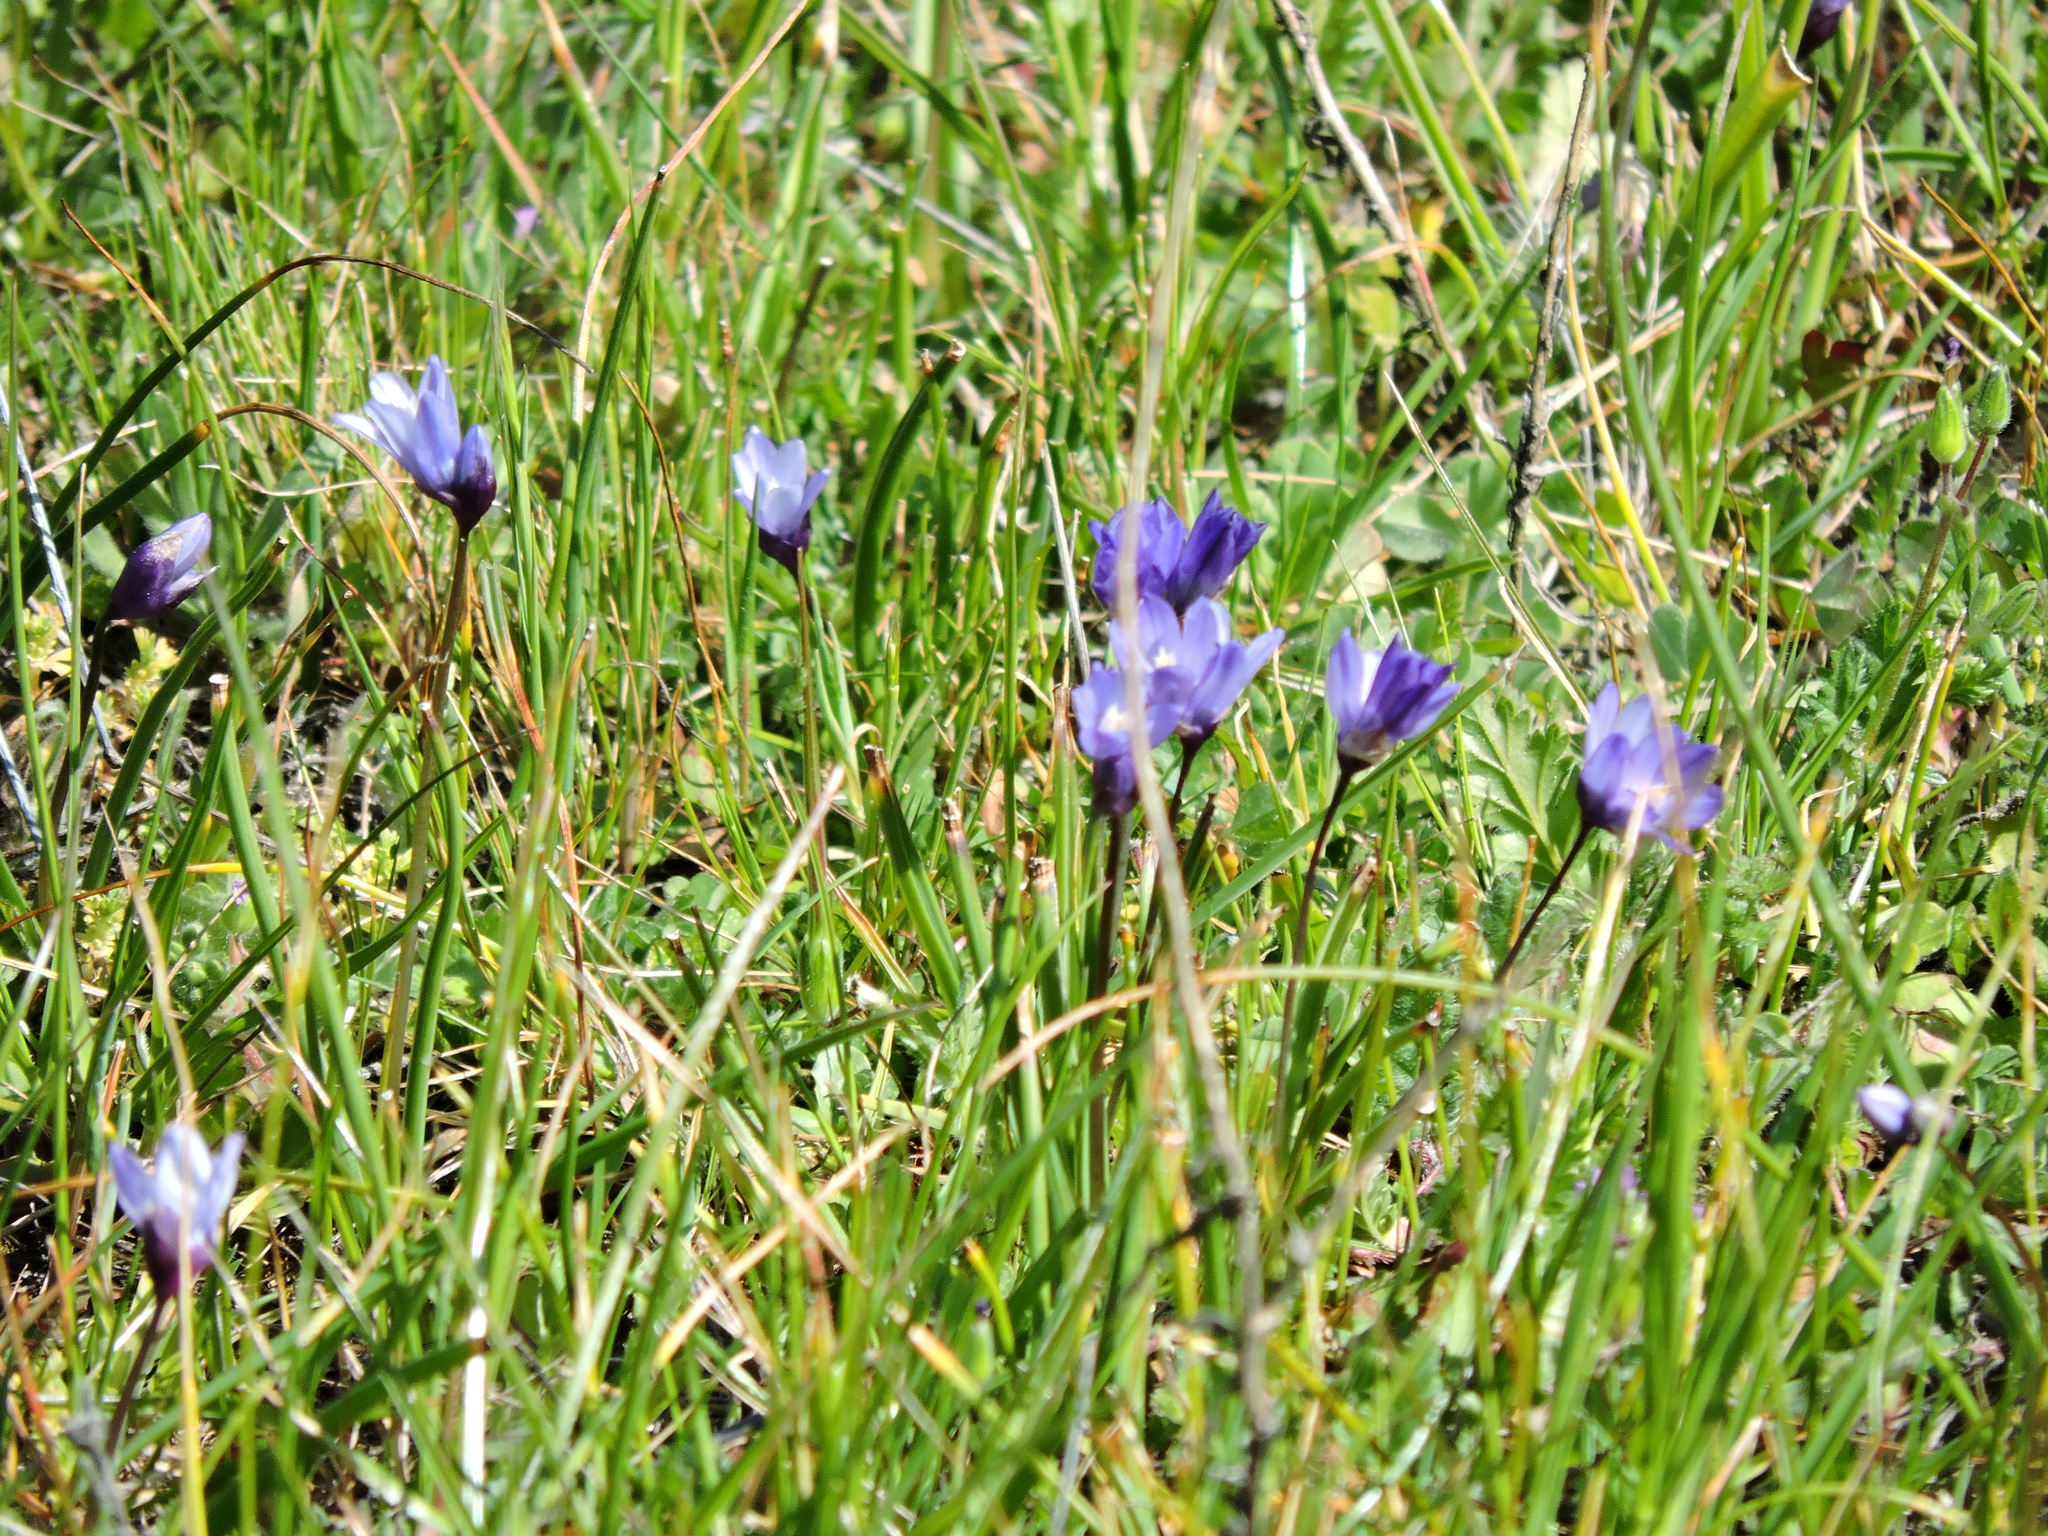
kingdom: Plantae
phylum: Tracheophyta
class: Liliopsida
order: Asparagales
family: Asparagaceae
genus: Dipterostemon
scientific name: Dipterostemon capitatus
